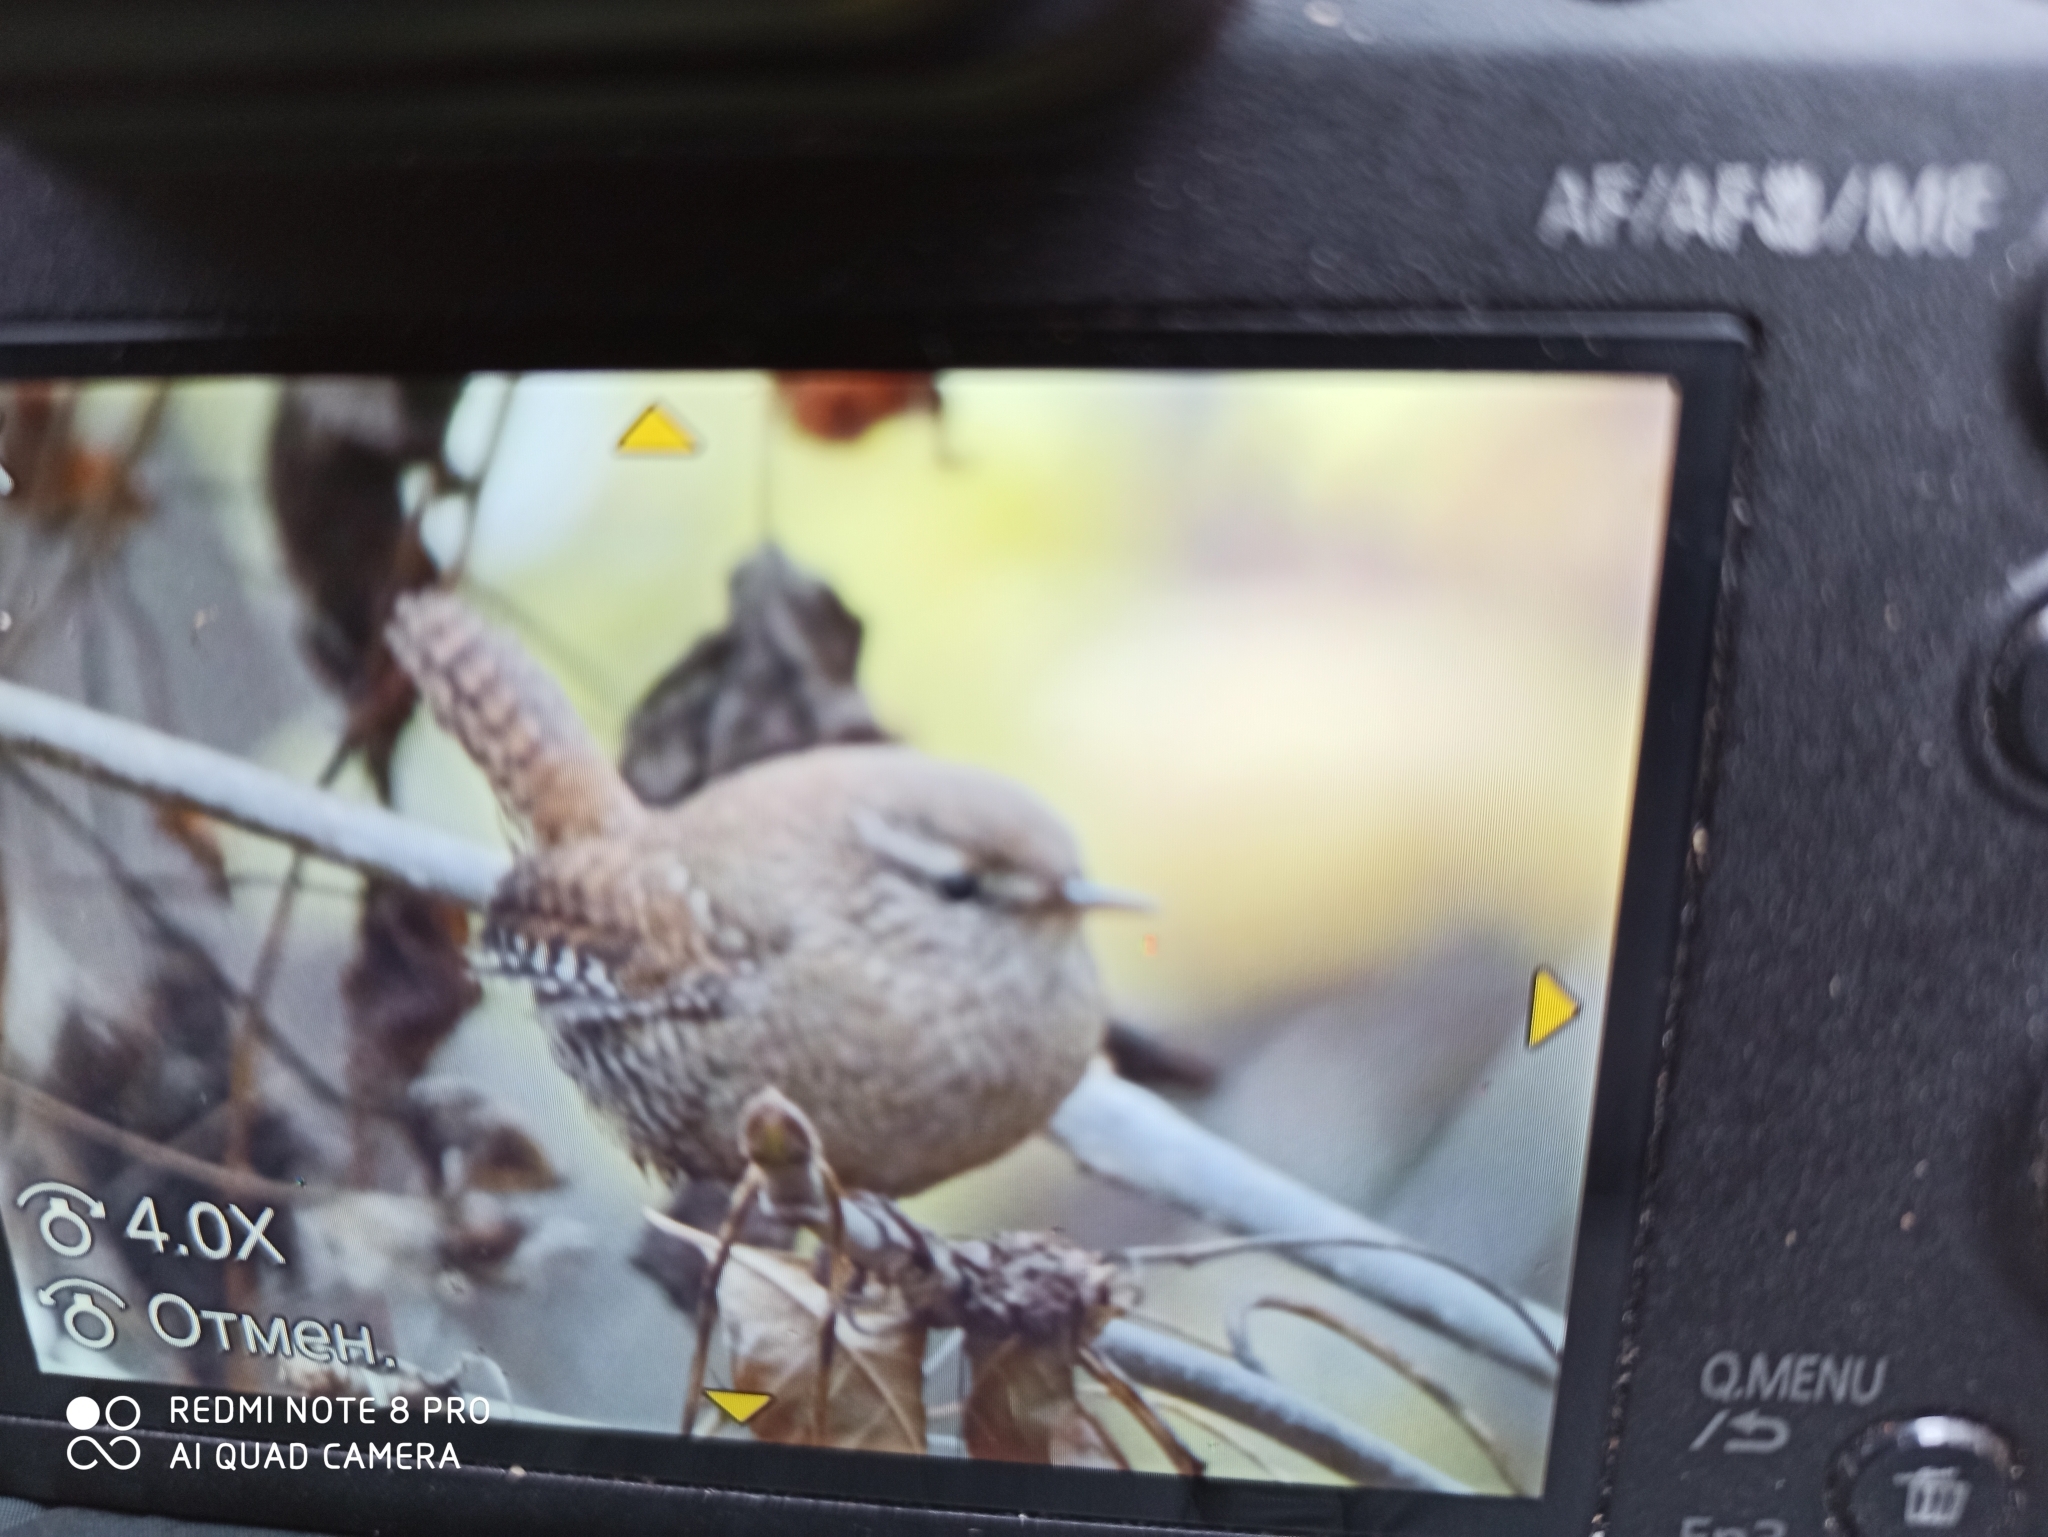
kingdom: Animalia
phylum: Chordata
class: Aves
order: Passeriformes
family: Troglodytidae
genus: Troglodytes
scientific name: Troglodytes troglodytes
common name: Eurasian wren
